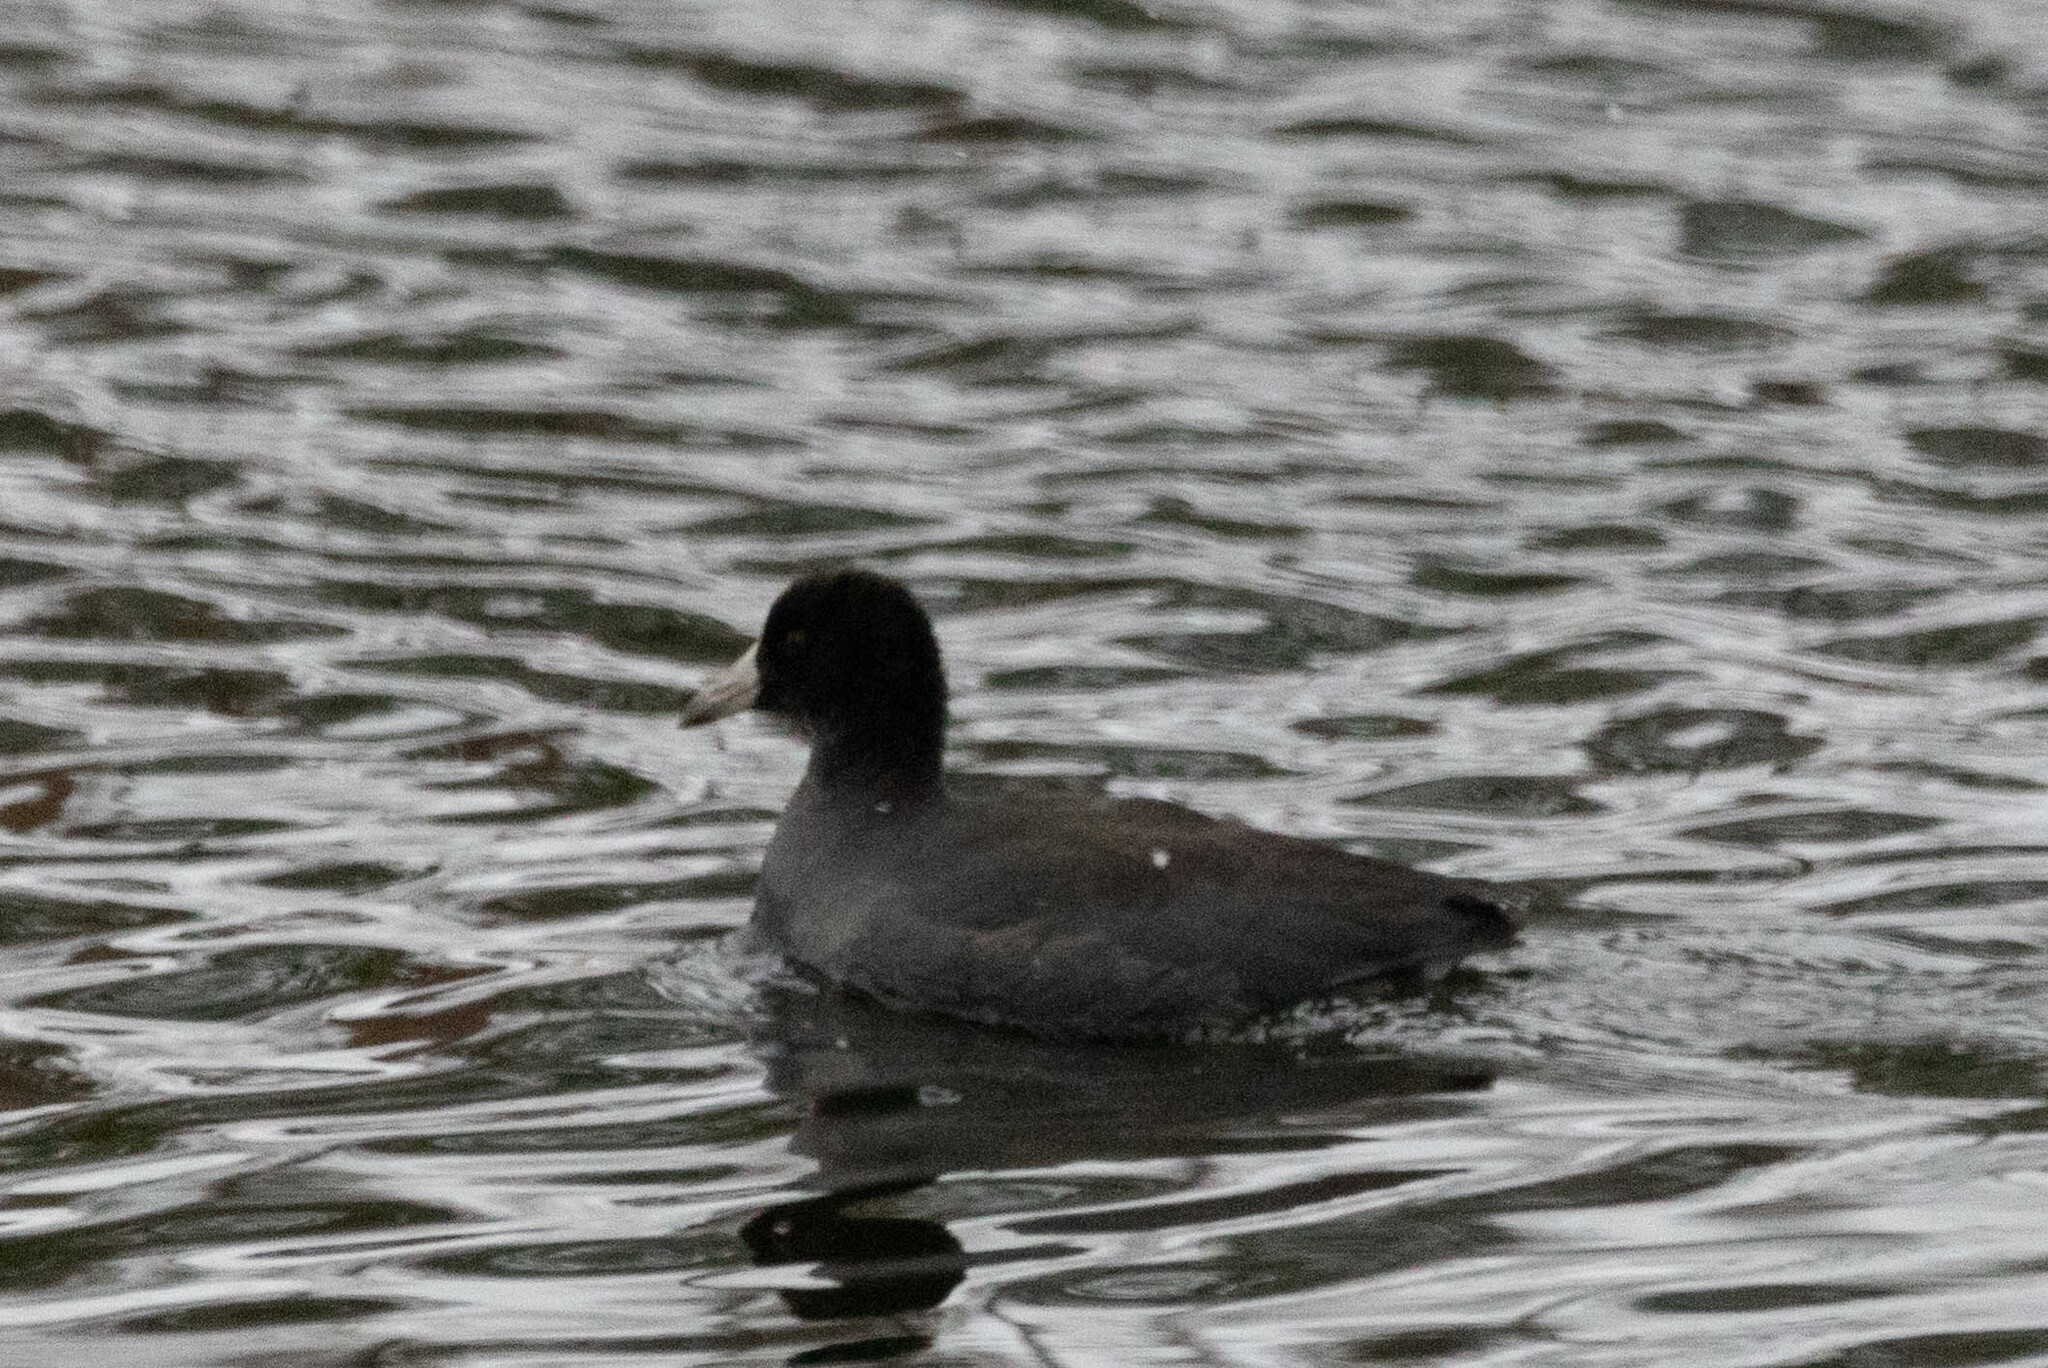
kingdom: Animalia
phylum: Chordata
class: Aves
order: Gruiformes
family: Rallidae
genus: Fulica
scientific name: Fulica americana
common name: American coot
